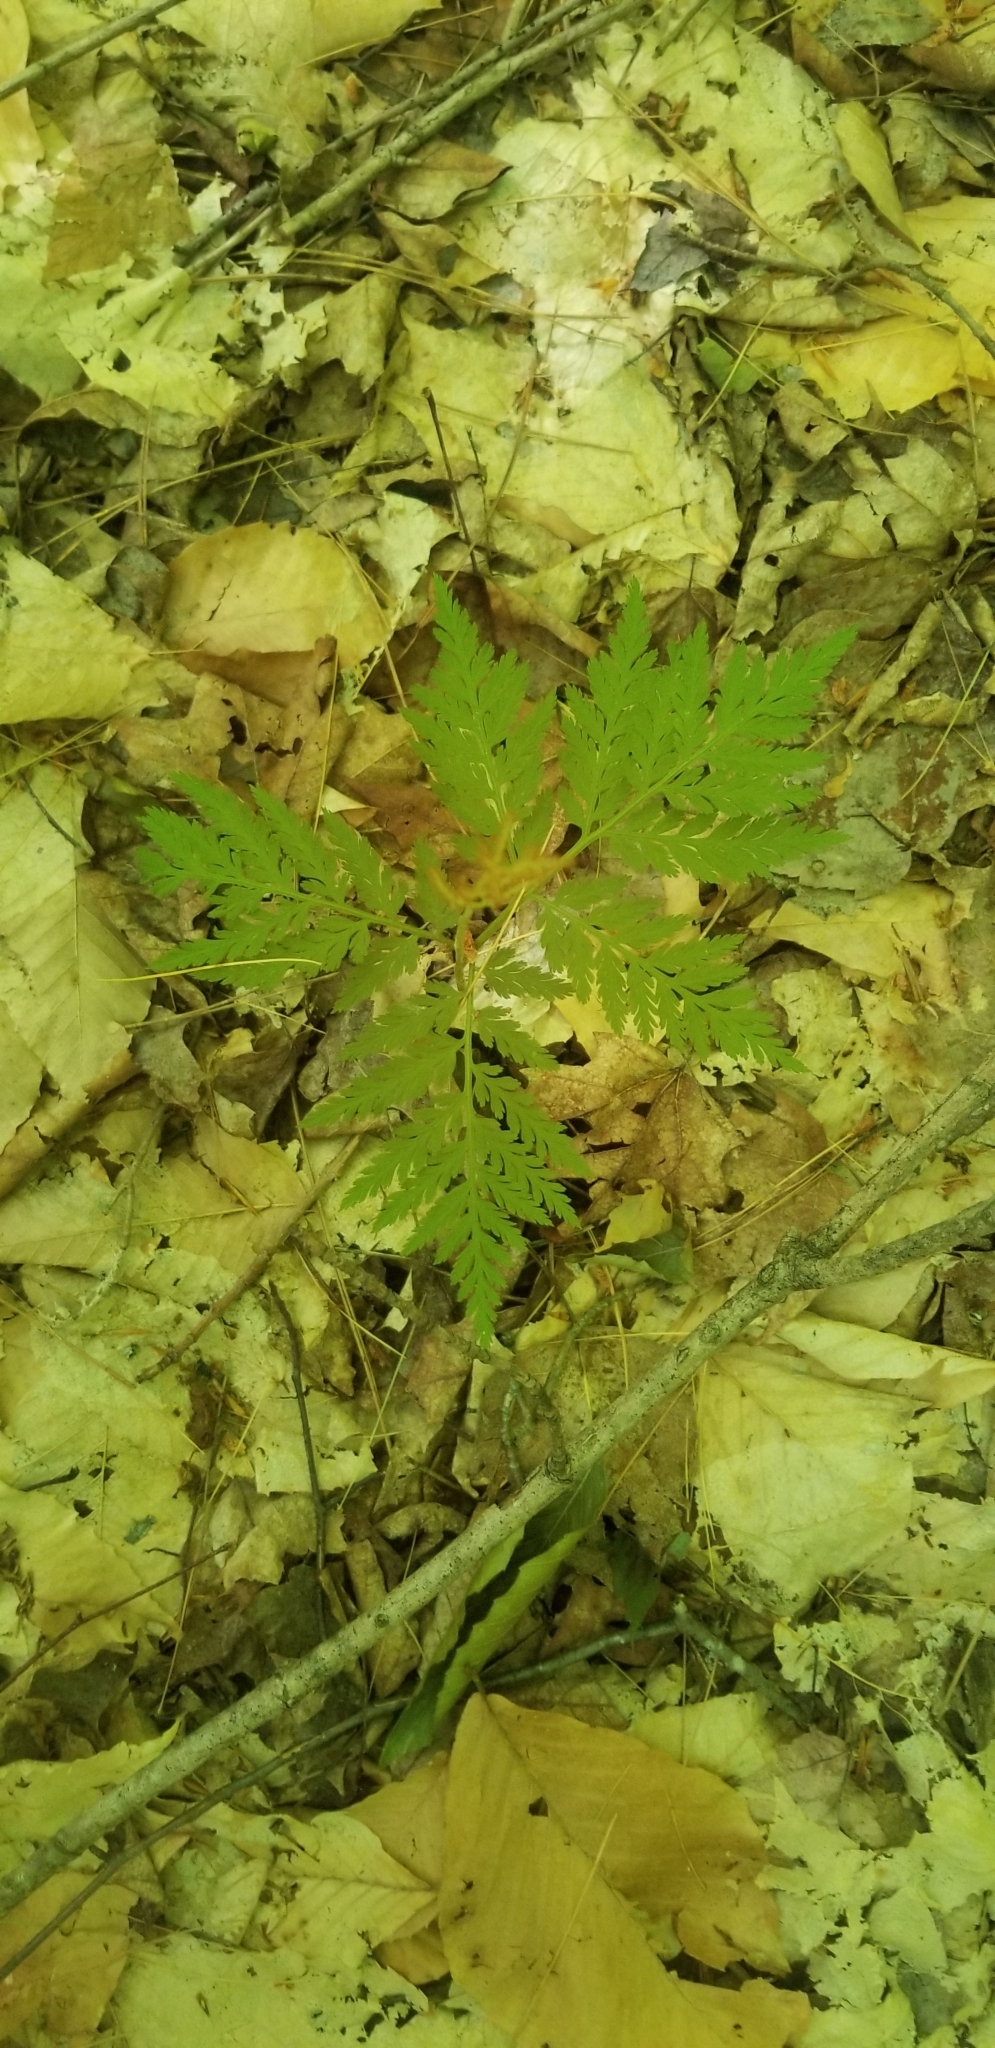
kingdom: Plantae
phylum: Tracheophyta
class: Polypodiopsida
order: Ophioglossales
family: Ophioglossaceae
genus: Botrypus
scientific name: Botrypus virginianus
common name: Common grapefern
